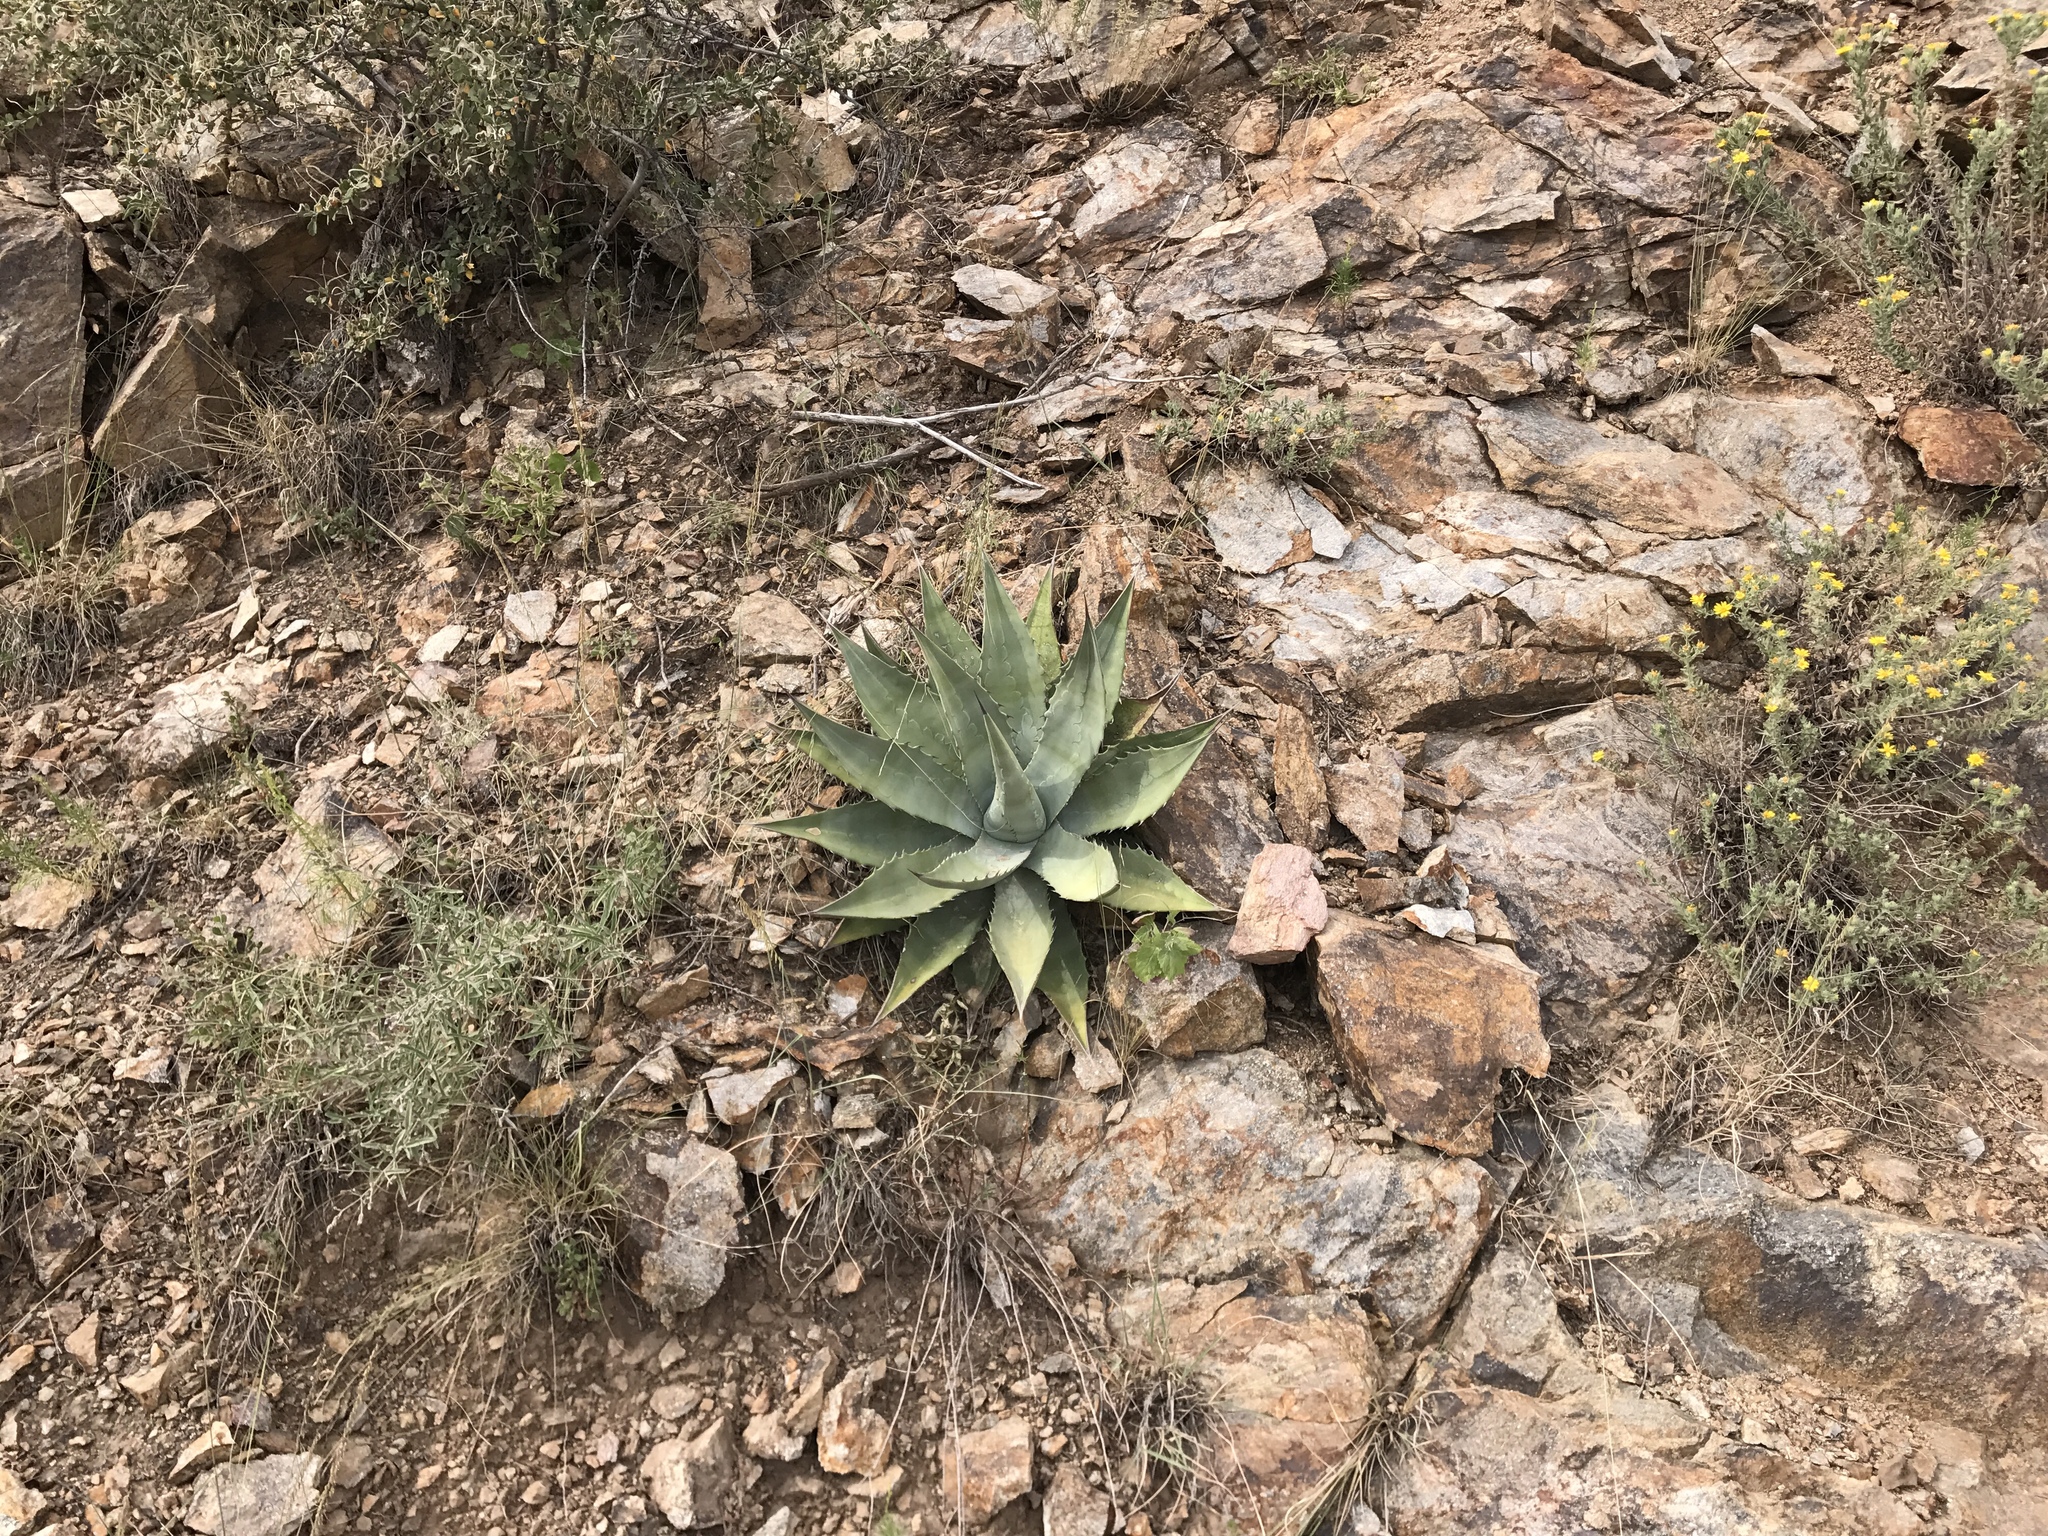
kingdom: Plantae
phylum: Tracheophyta
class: Liliopsida
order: Asparagales
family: Asparagaceae
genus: Agave
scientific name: Agave chrysantha
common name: Golden-flowered agave
